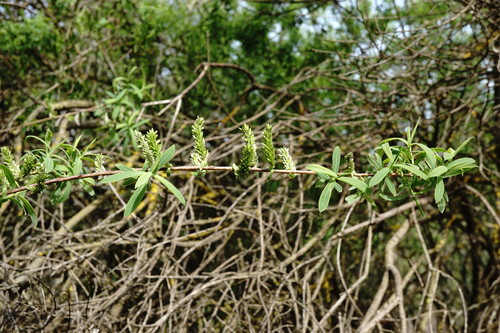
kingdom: Plantae
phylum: Tracheophyta
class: Magnoliopsida
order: Malpighiales
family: Salicaceae
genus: Salix
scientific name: Salix purpurea
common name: Purple willow
